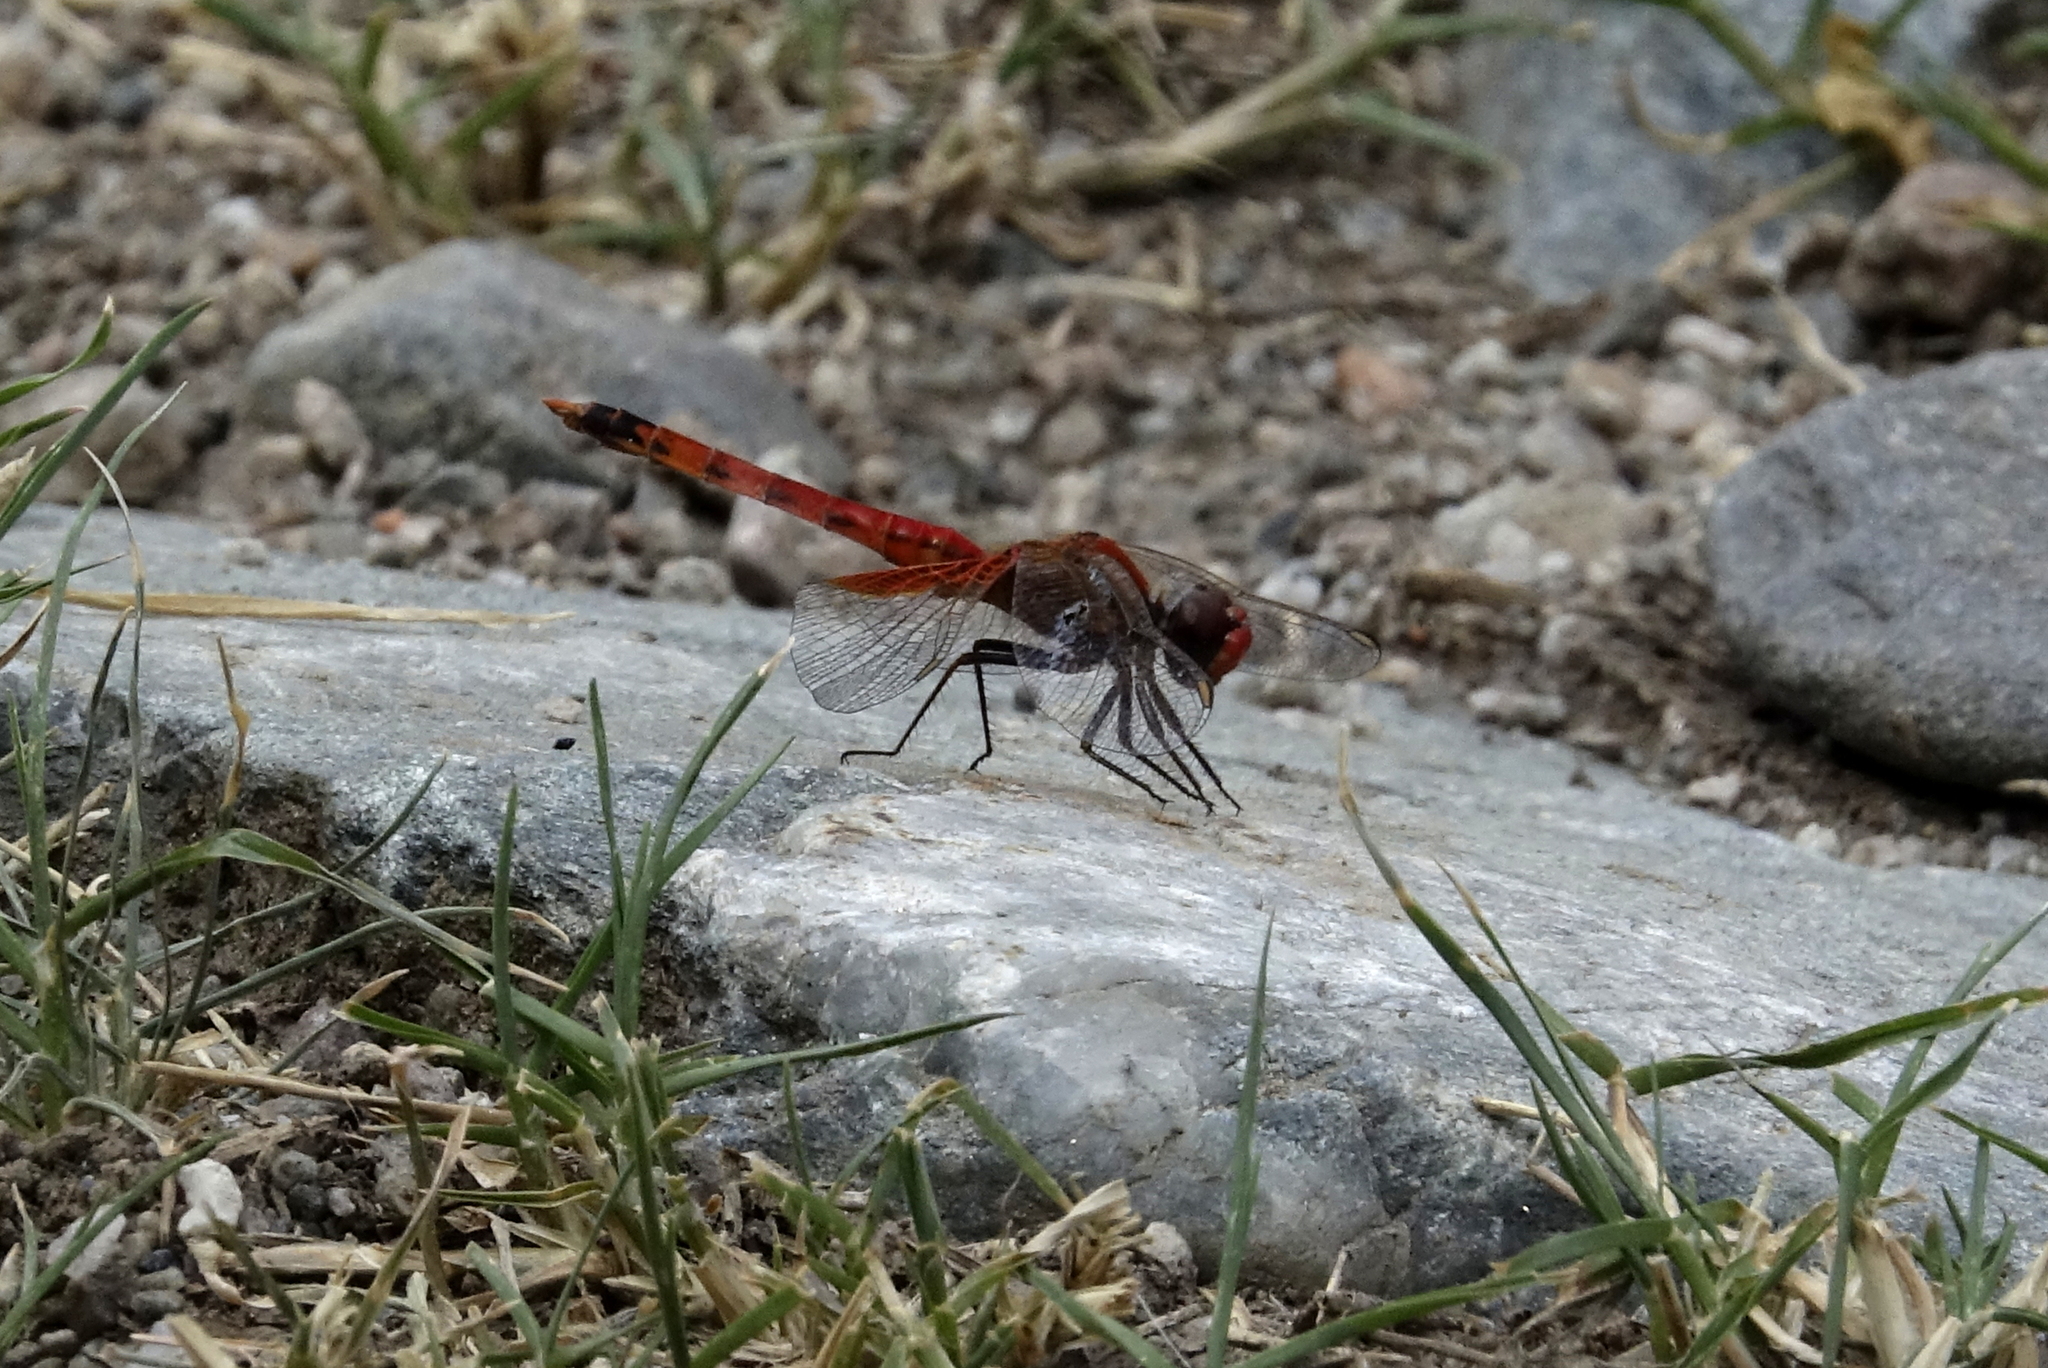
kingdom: Animalia
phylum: Arthropoda
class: Insecta
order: Odonata
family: Libellulidae
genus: Erythrodiplax
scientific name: Erythrodiplax corallina
